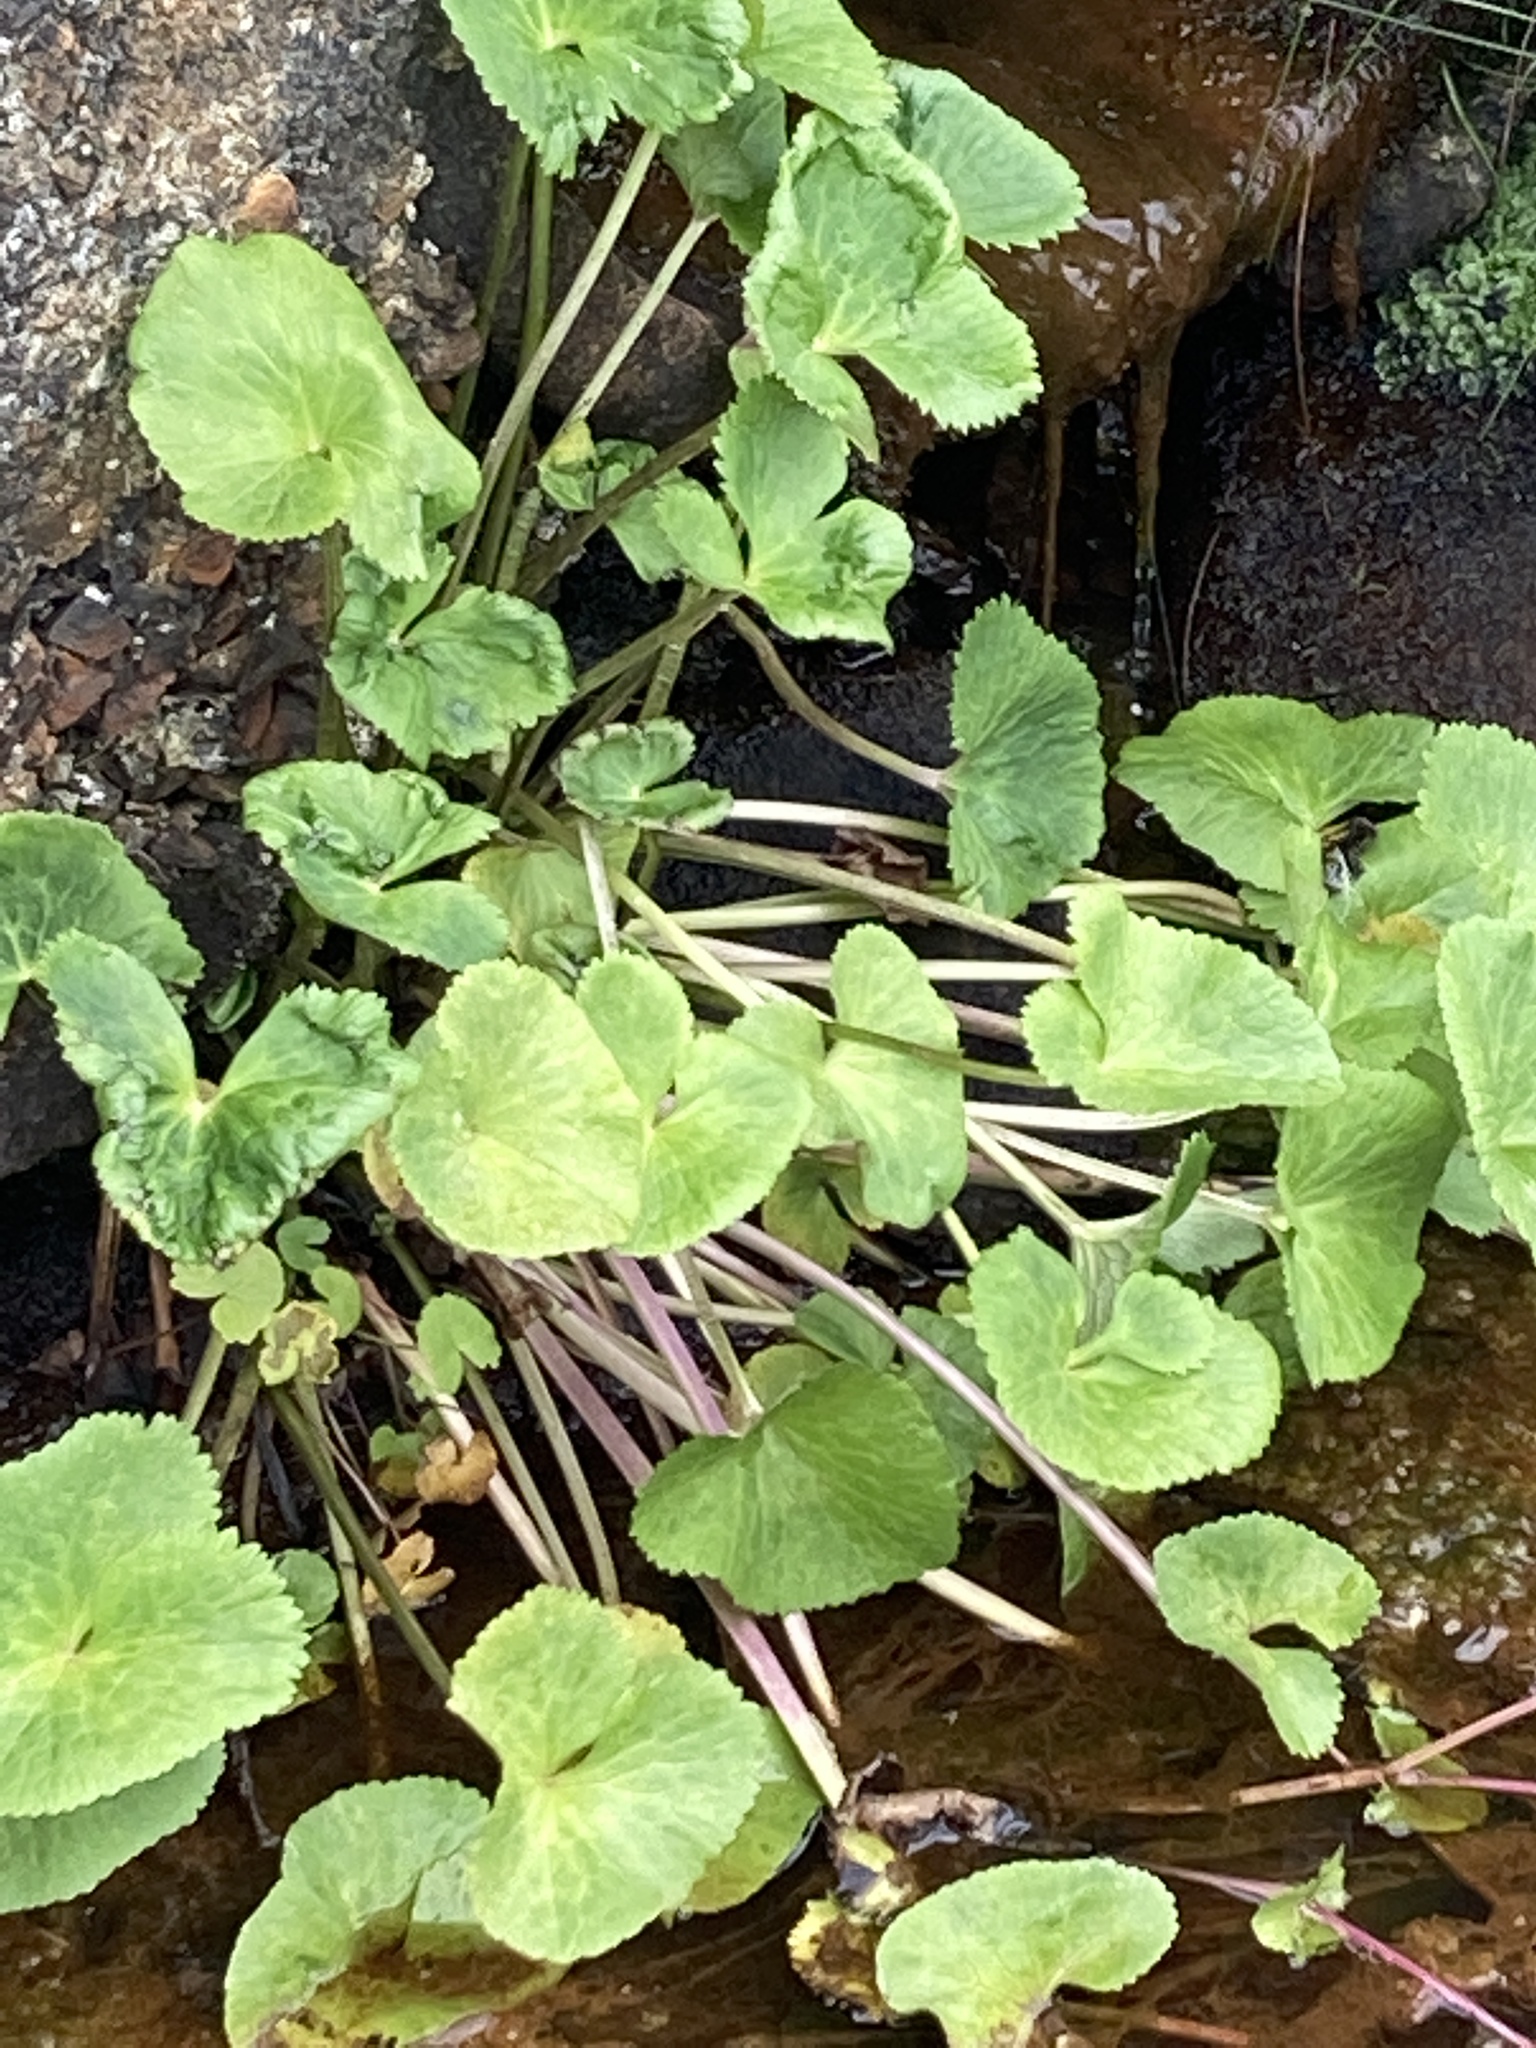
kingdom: Plantae
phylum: Tracheophyta
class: Magnoliopsida
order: Ranunculales
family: Ranunculaceae
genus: Caltha
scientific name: Caltha palustris
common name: Marsh marigold
